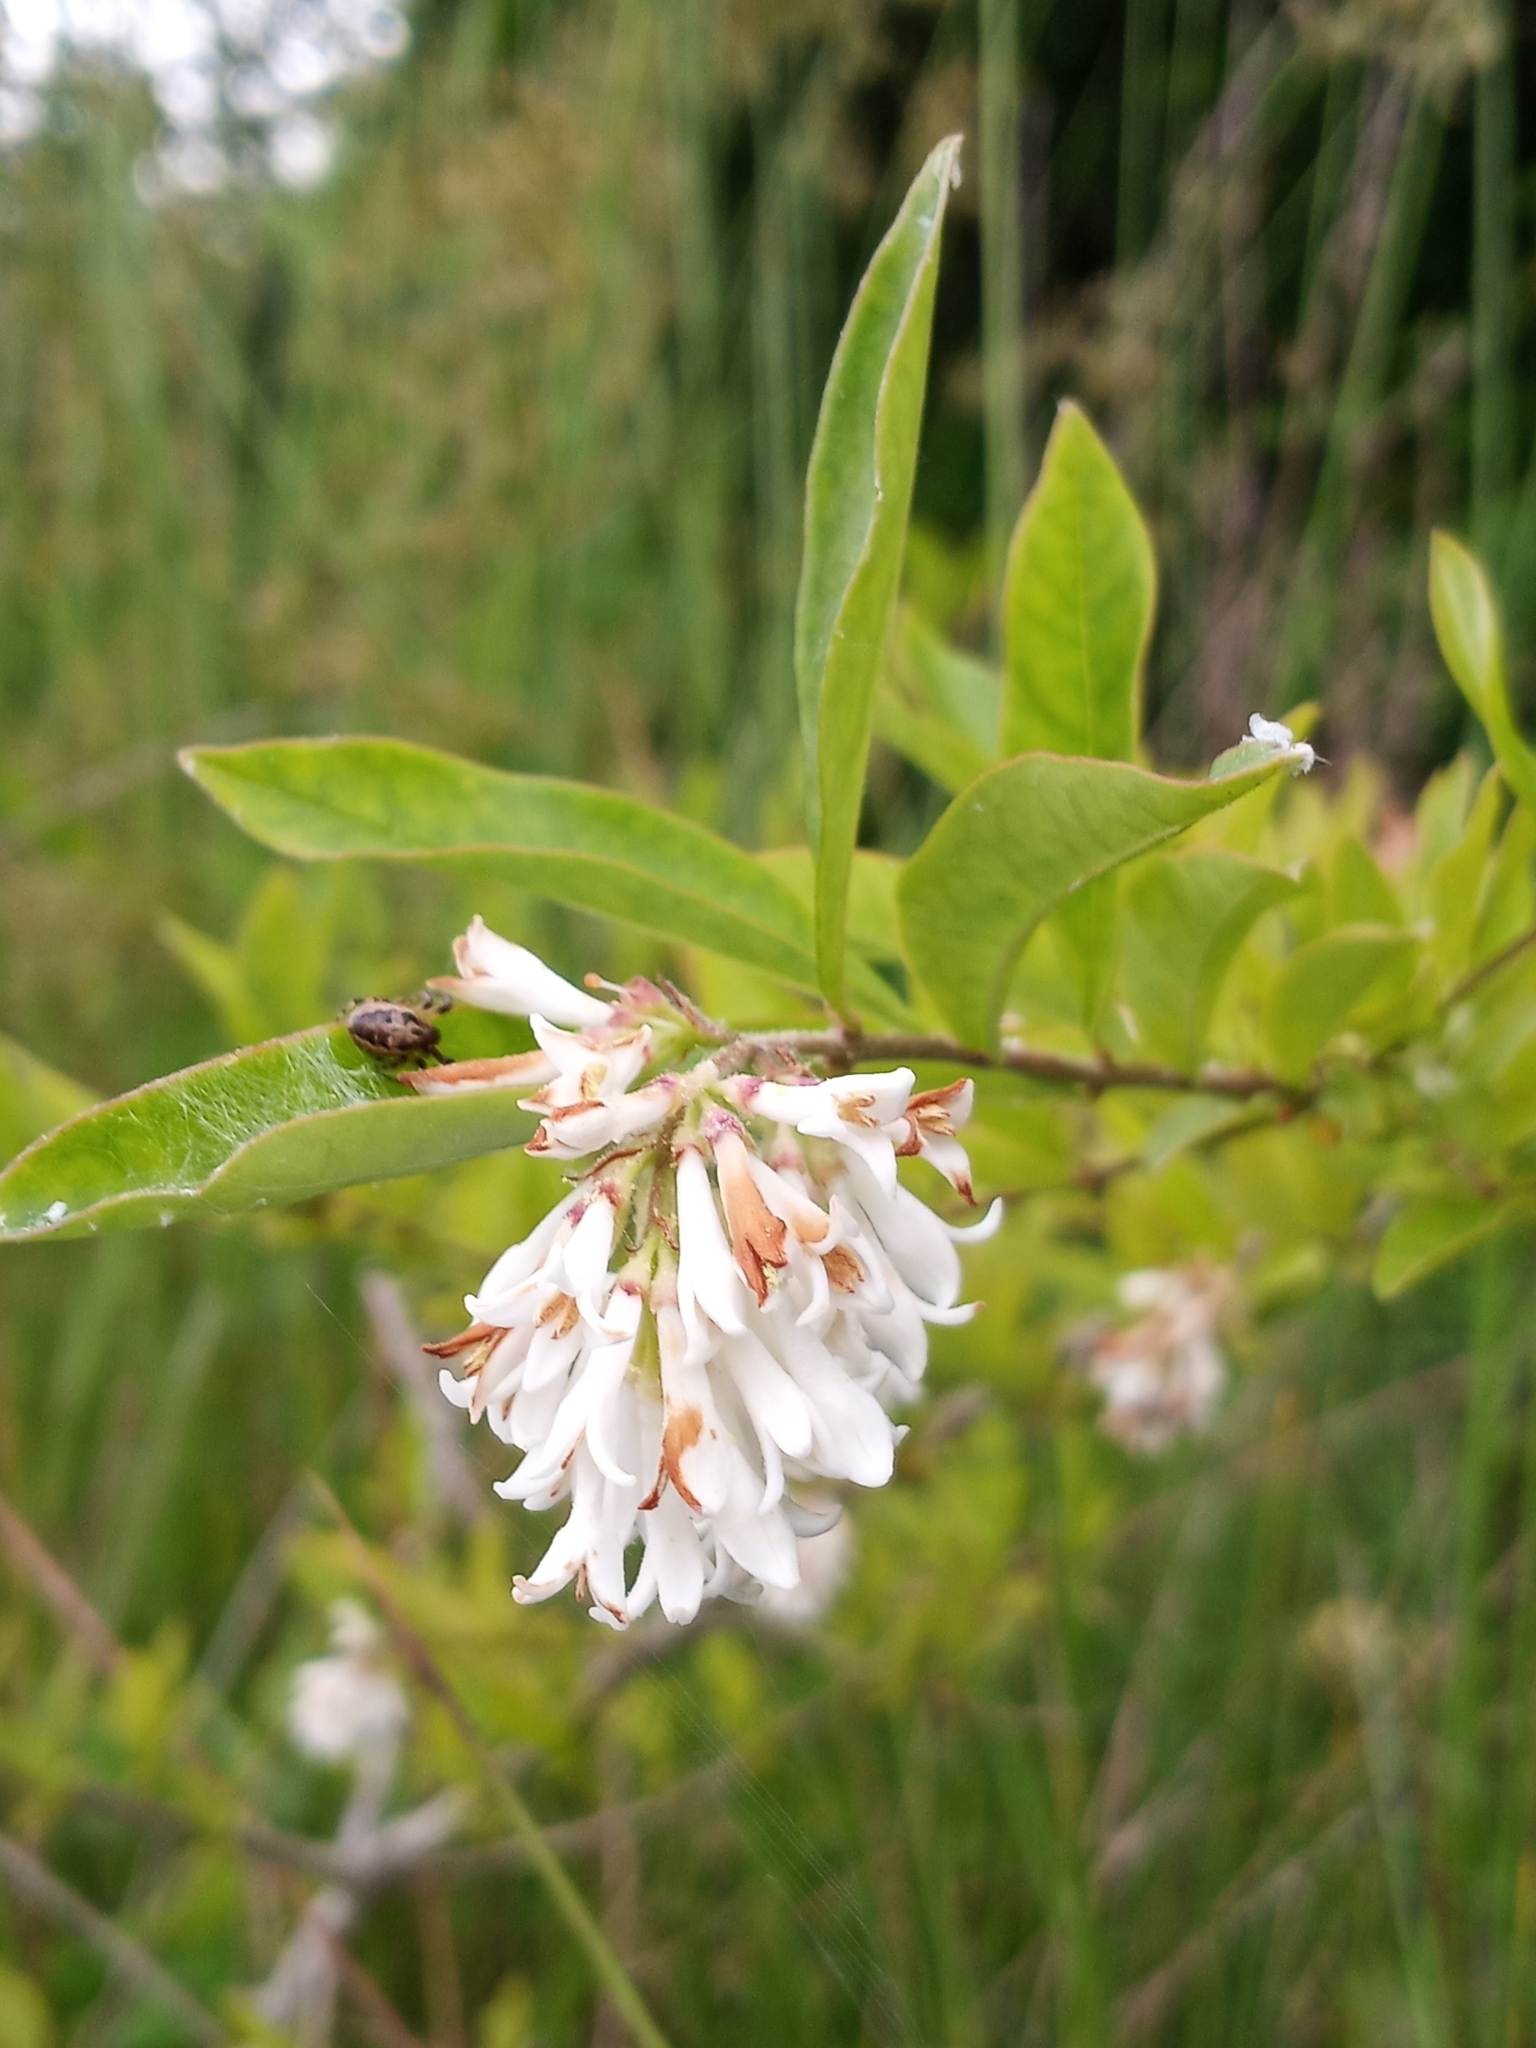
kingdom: Plantae
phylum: Tracheophyta
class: Magnoliopsida
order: Lamiales
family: Oleaceae
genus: Ligustrum
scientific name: Ligustrum obtusifolium
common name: Border privet
